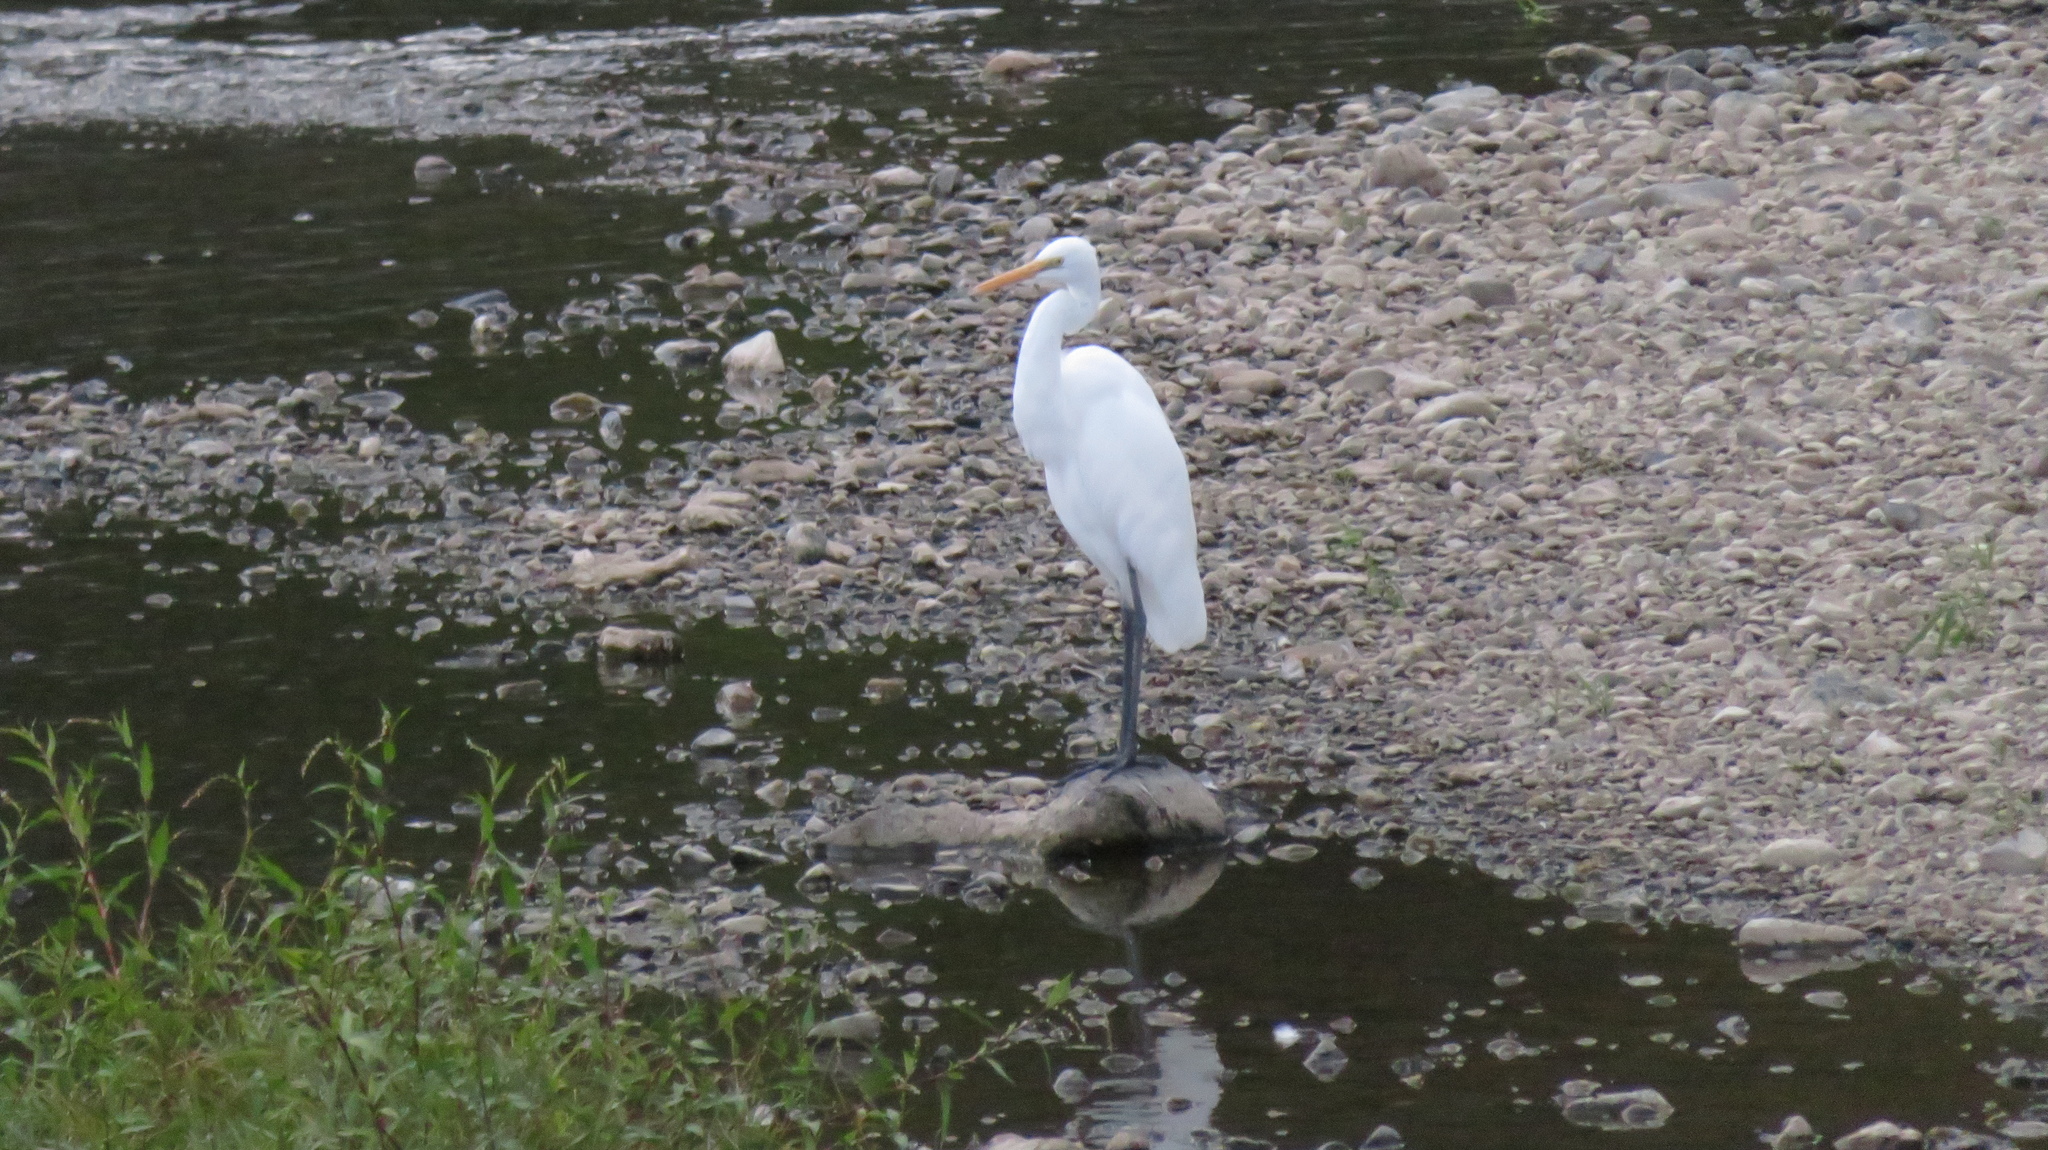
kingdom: Animalia
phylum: Chordata
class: Aves
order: Pelecaniformes
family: Ardeidae
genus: Ardea
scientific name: Ardea alba
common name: Great egret
